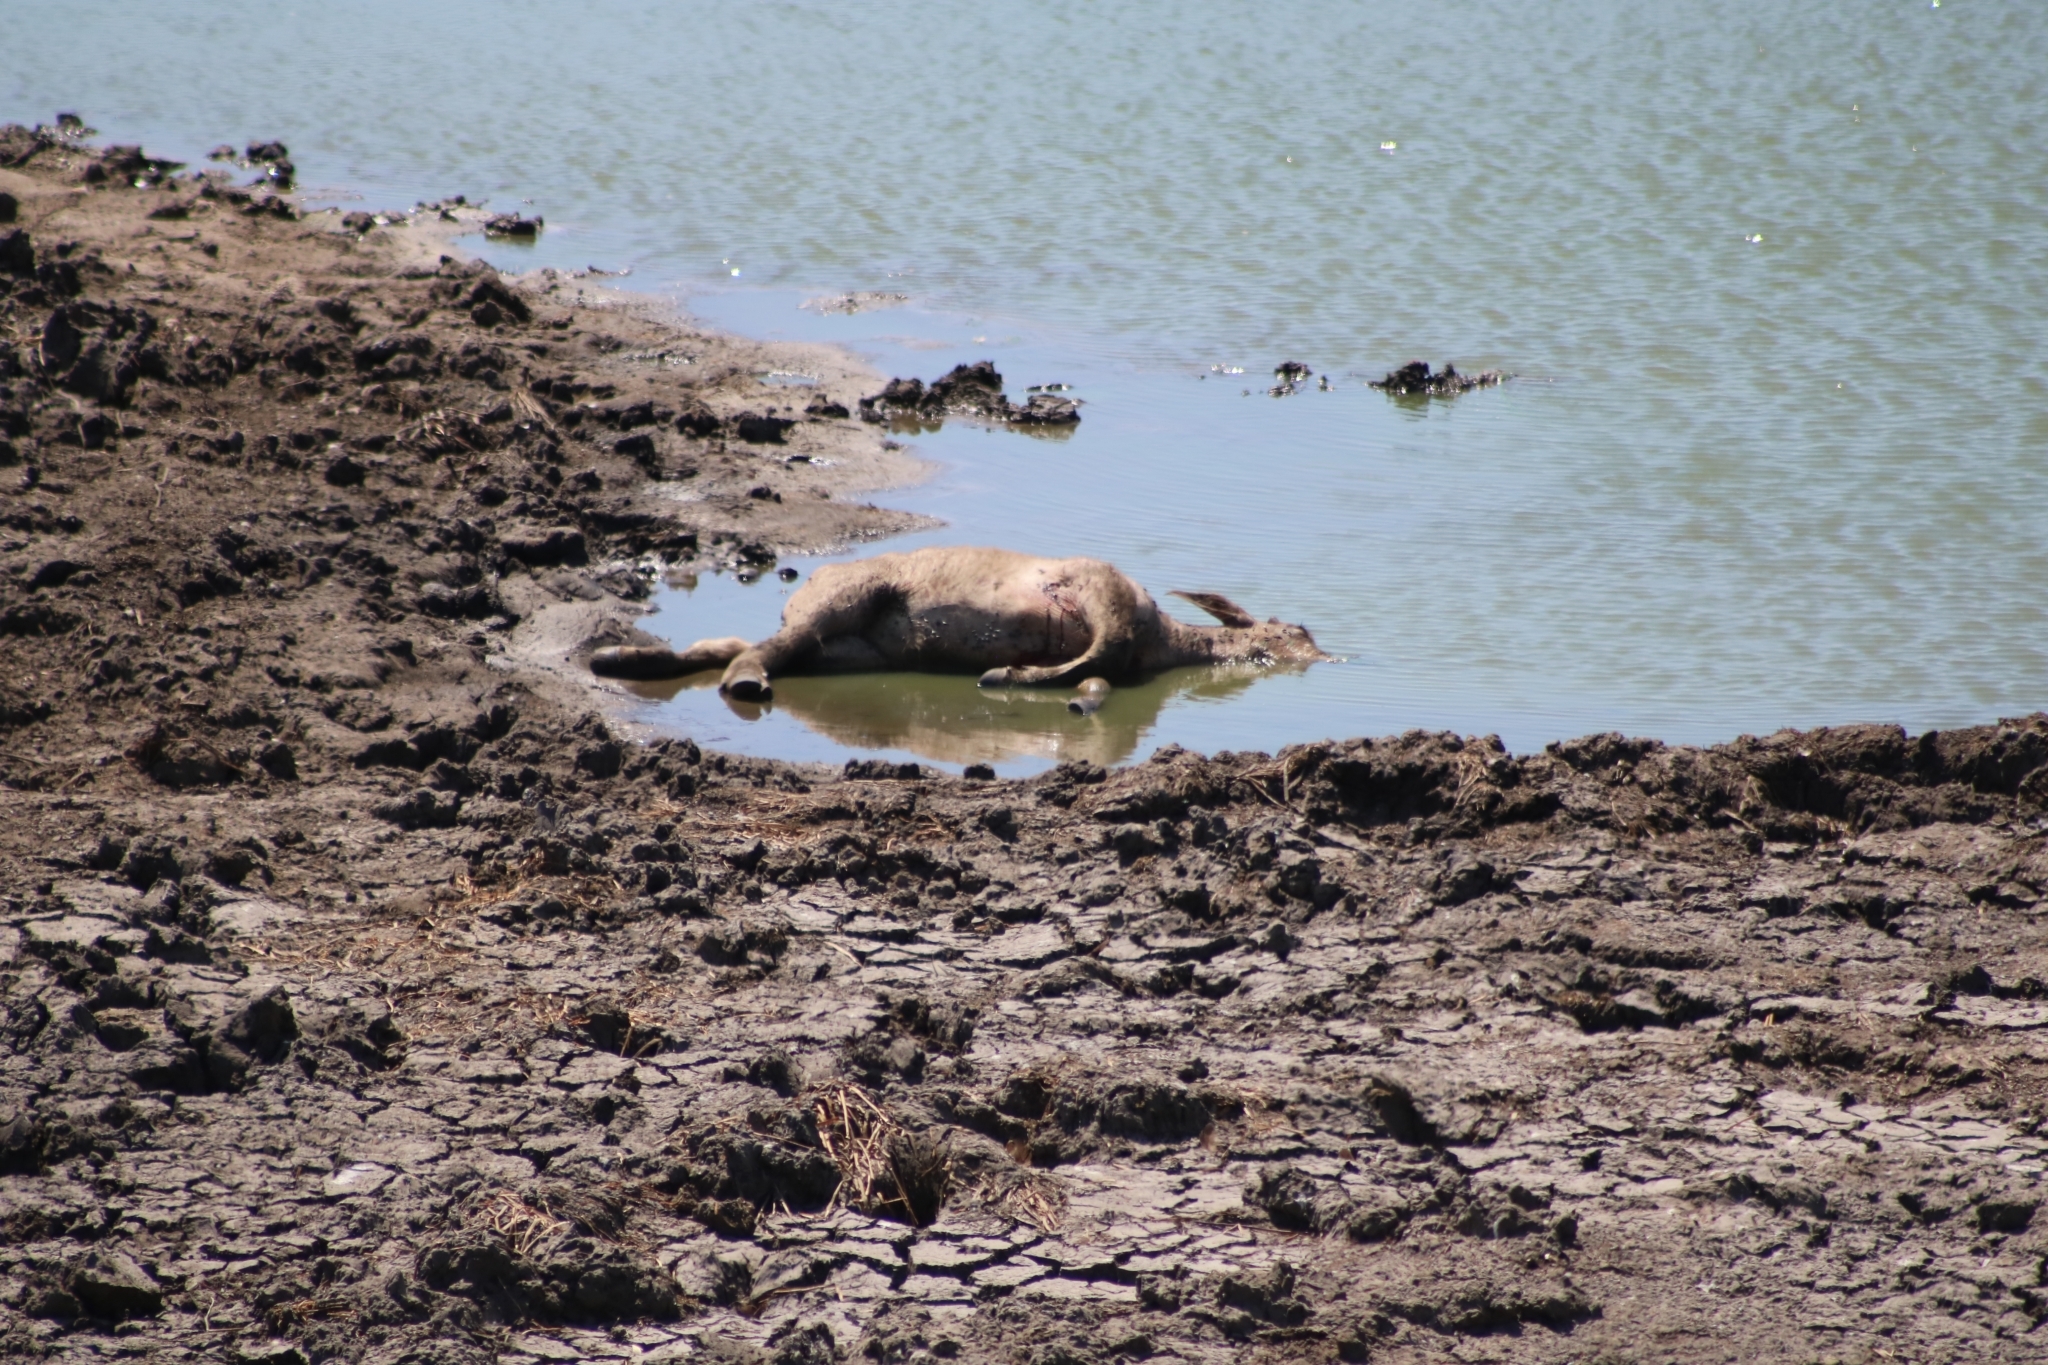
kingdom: Animalia
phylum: Chordata
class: Mammalia
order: Artiodactyla
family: Bovidae
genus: Bubalus
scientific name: Bubalus bubalis
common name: Water buffalo
